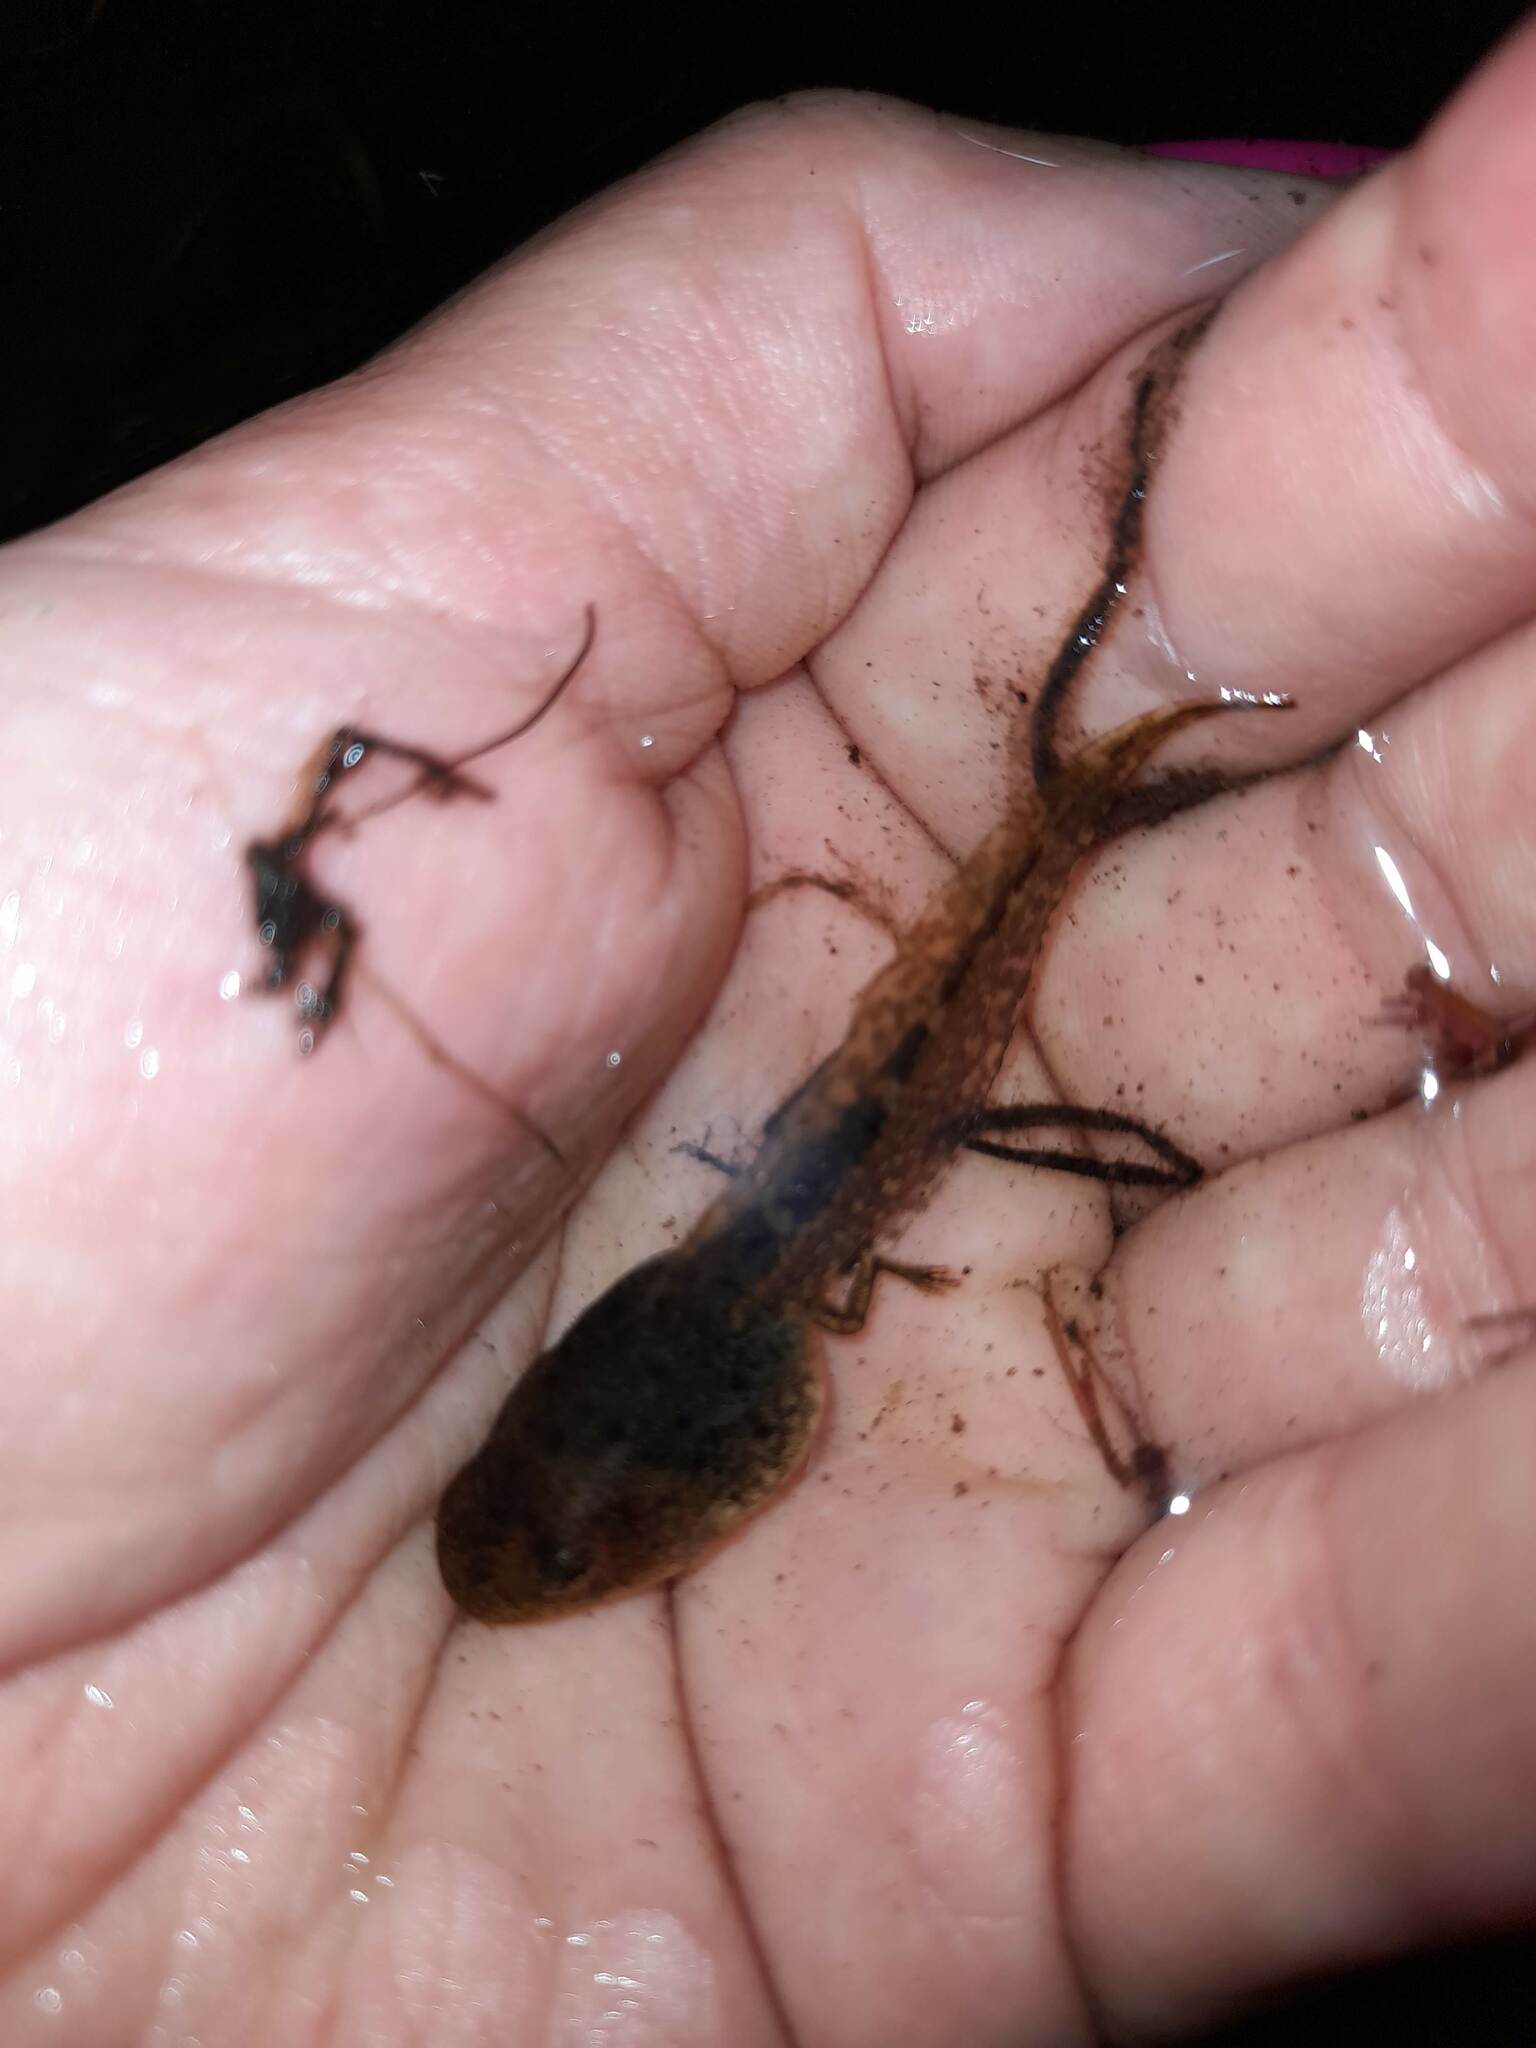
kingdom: Animalia
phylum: Chordata
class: Amphibia
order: Anura
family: Hylidae
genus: Boana
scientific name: Boana pulchella
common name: Montevideo treefrog
